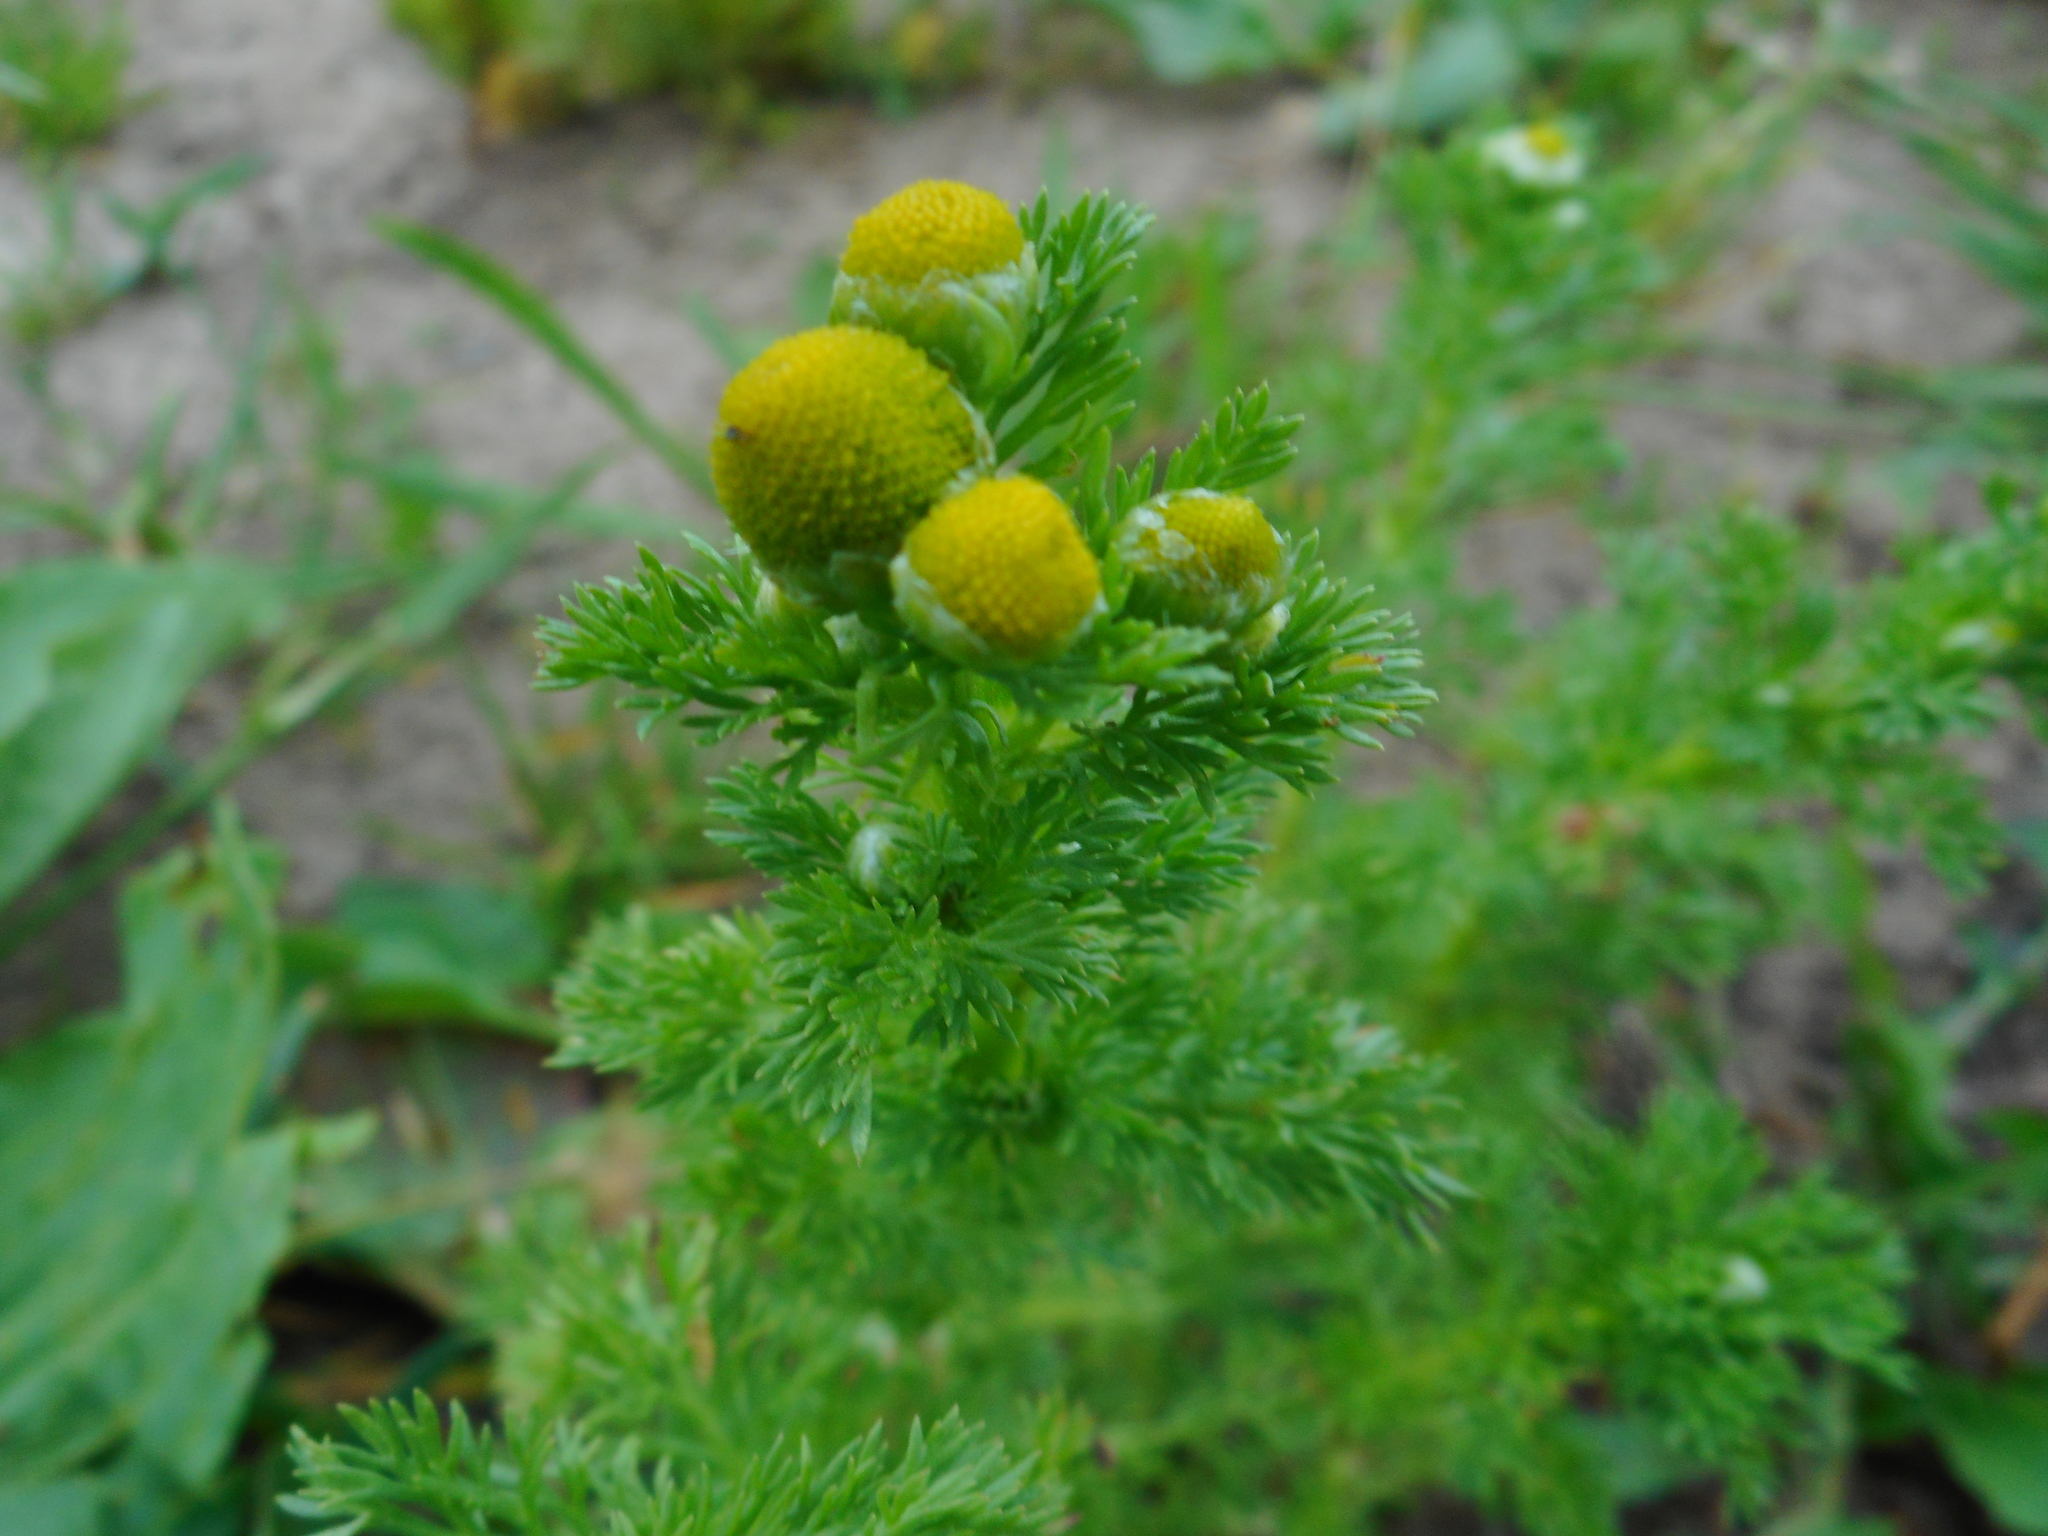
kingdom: Plantae
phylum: Tracheophyta
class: Magnoliopsida
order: Asterales
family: Asteraceae
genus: Matricaria
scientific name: Matricaria discoidea
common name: Disc mayweed
